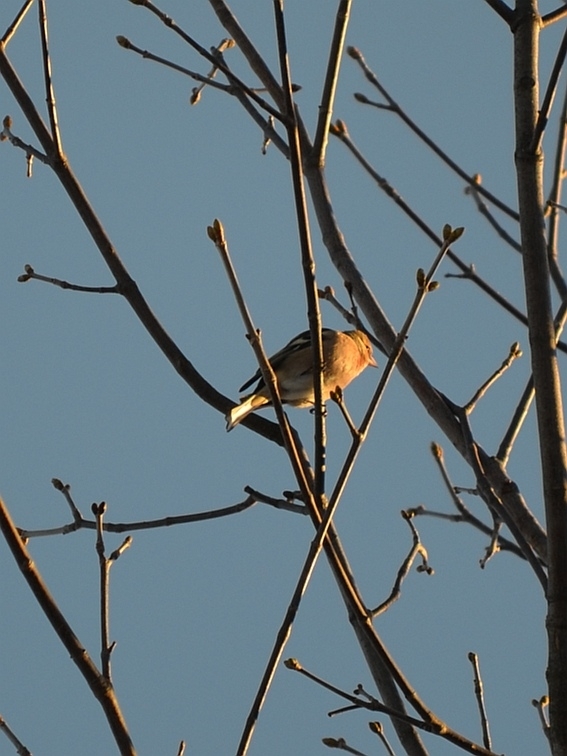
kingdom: Animalia
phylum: Chordata
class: Aves
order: Passeriformes
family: Fringillidae
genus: Fringilla
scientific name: Fringilla coelebs
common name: Common chaffinch
